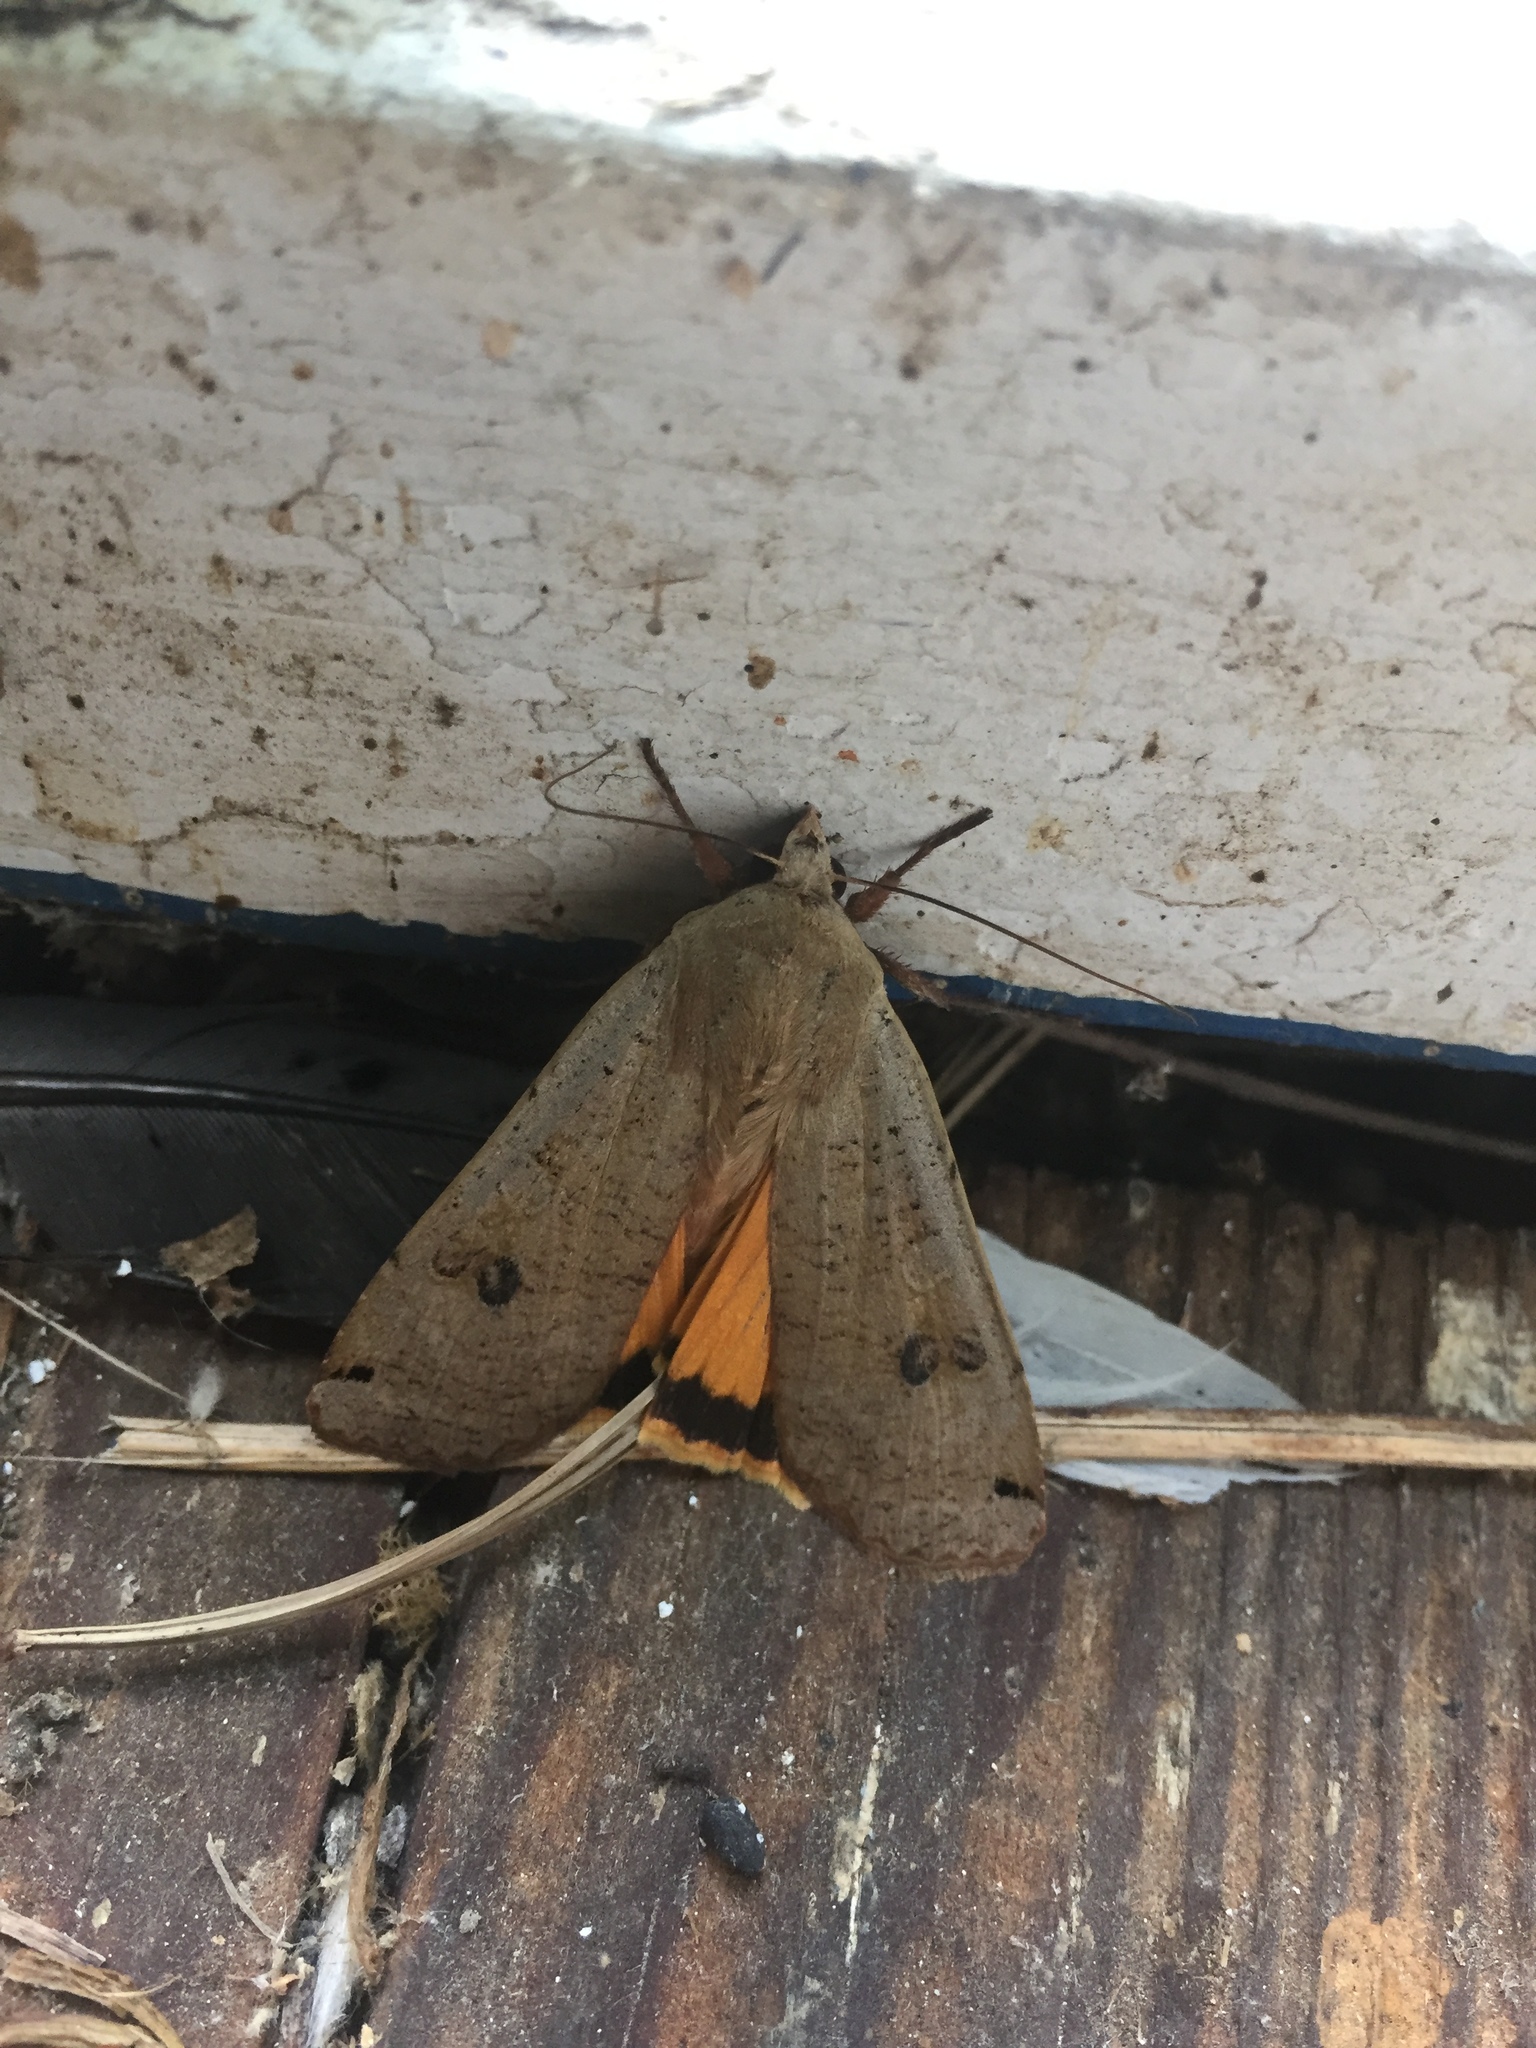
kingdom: Animalia
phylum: Arthropoda
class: Insecta
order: Lepidoptera
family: Noctuidae
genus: Noctua
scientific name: Noctua pronuba
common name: Large yellow underwing
